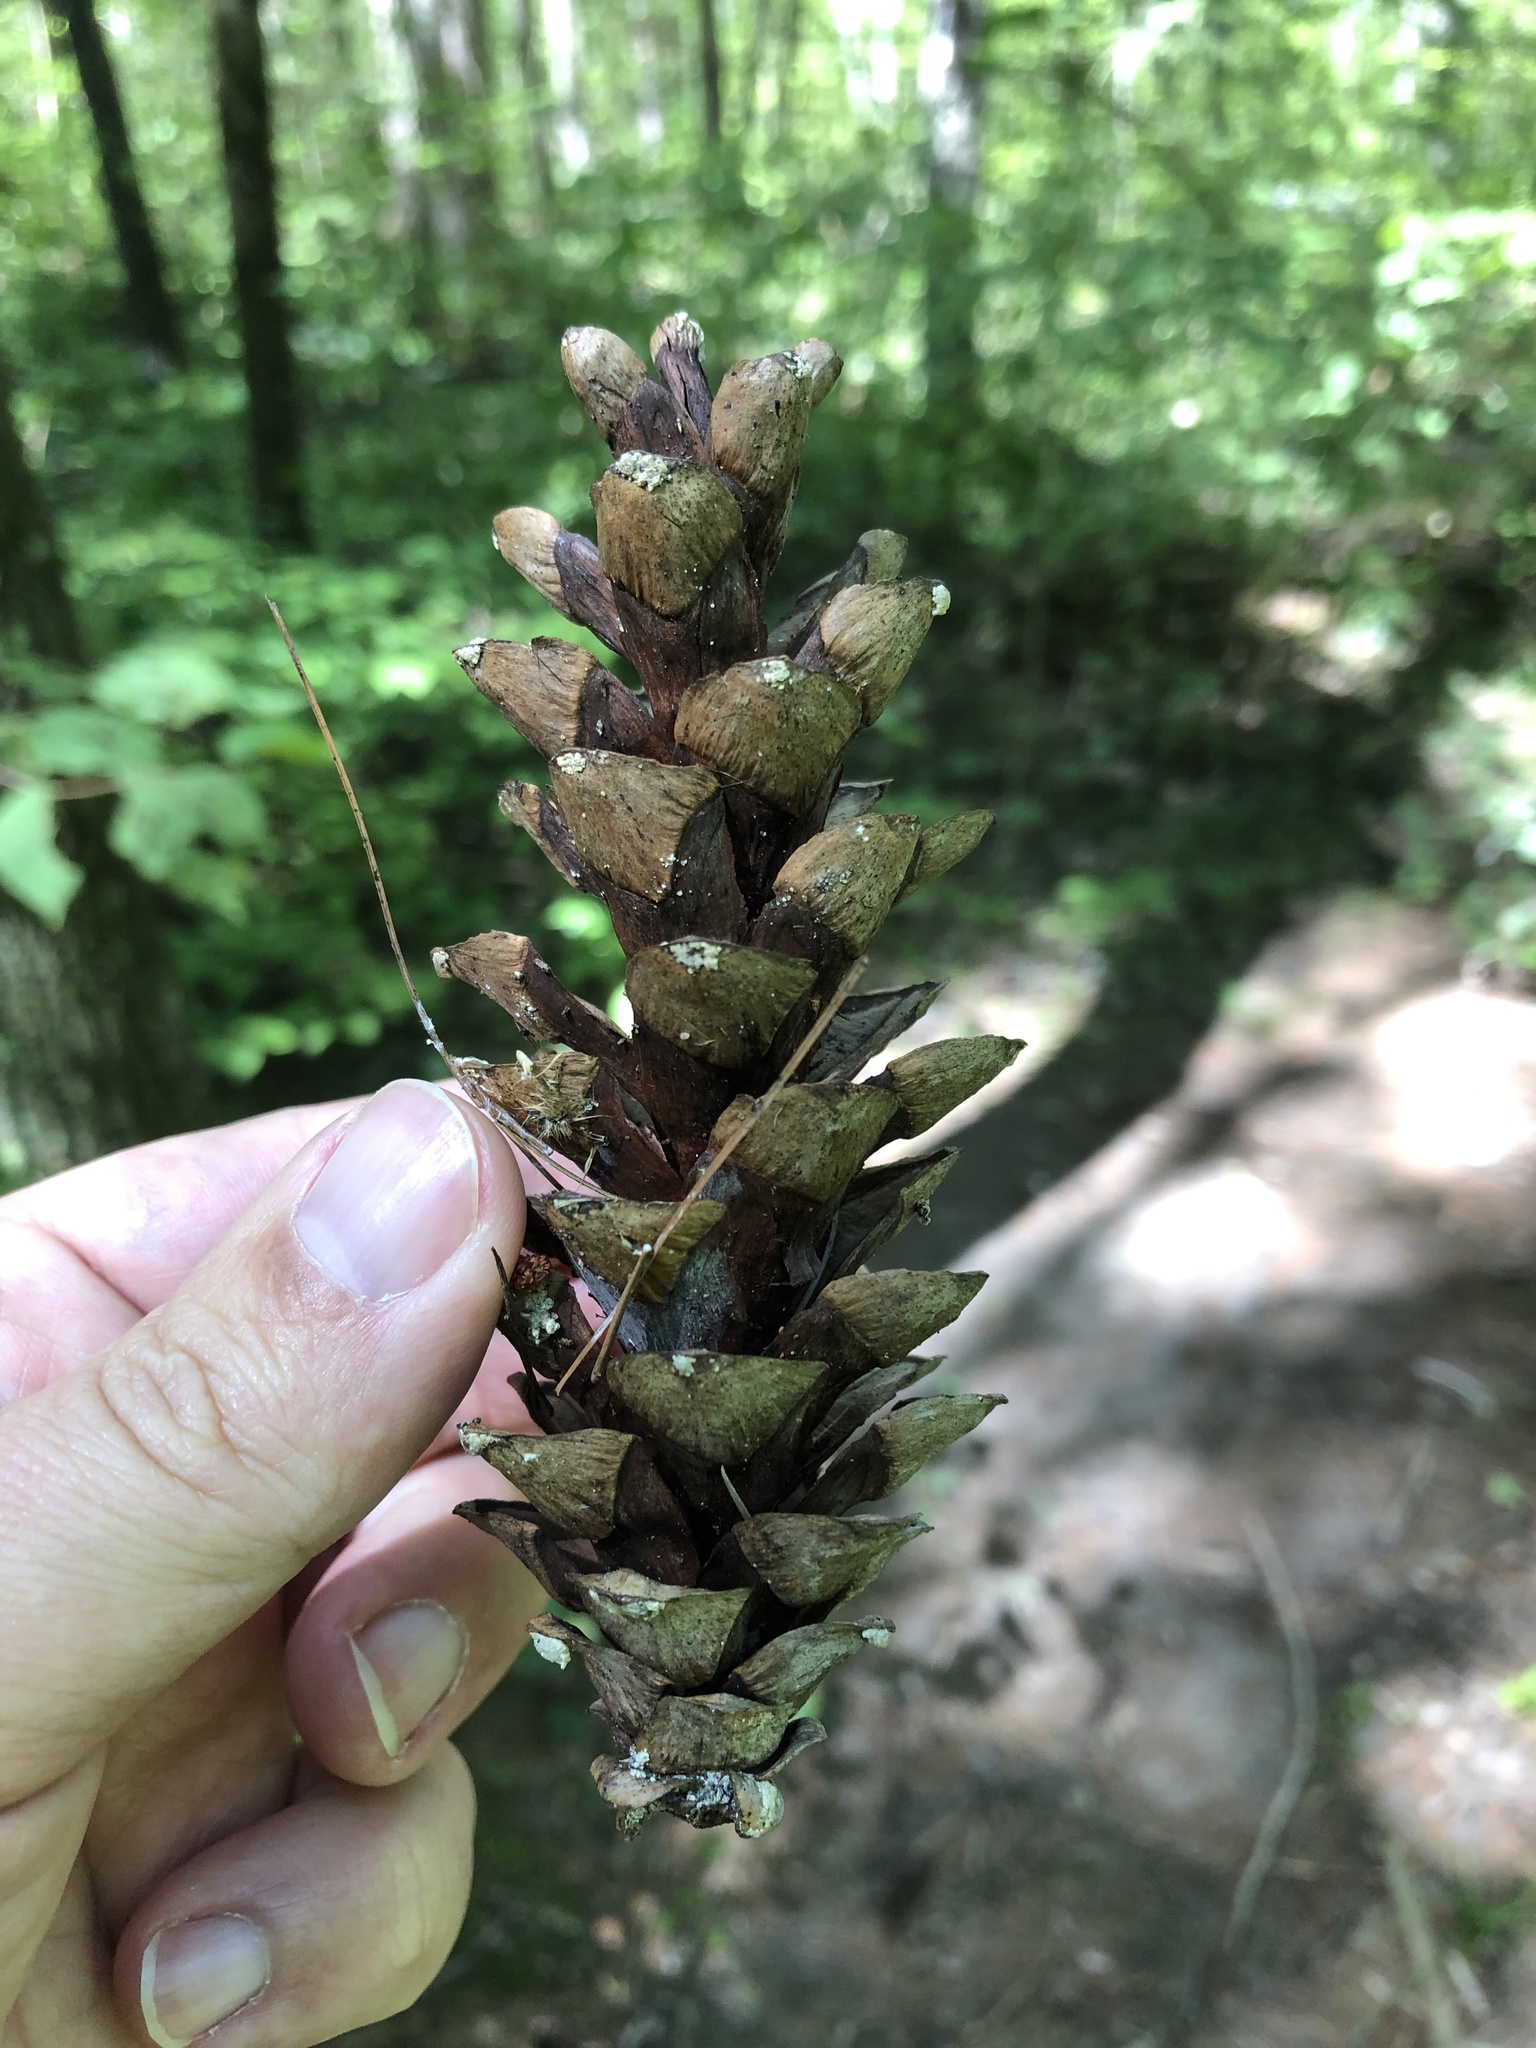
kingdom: Plantae
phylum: Tracheophyta
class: Pinopsida
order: Pinales
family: Pinaceae
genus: Pinus
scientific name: Pinus strobus
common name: Weymouth pine
